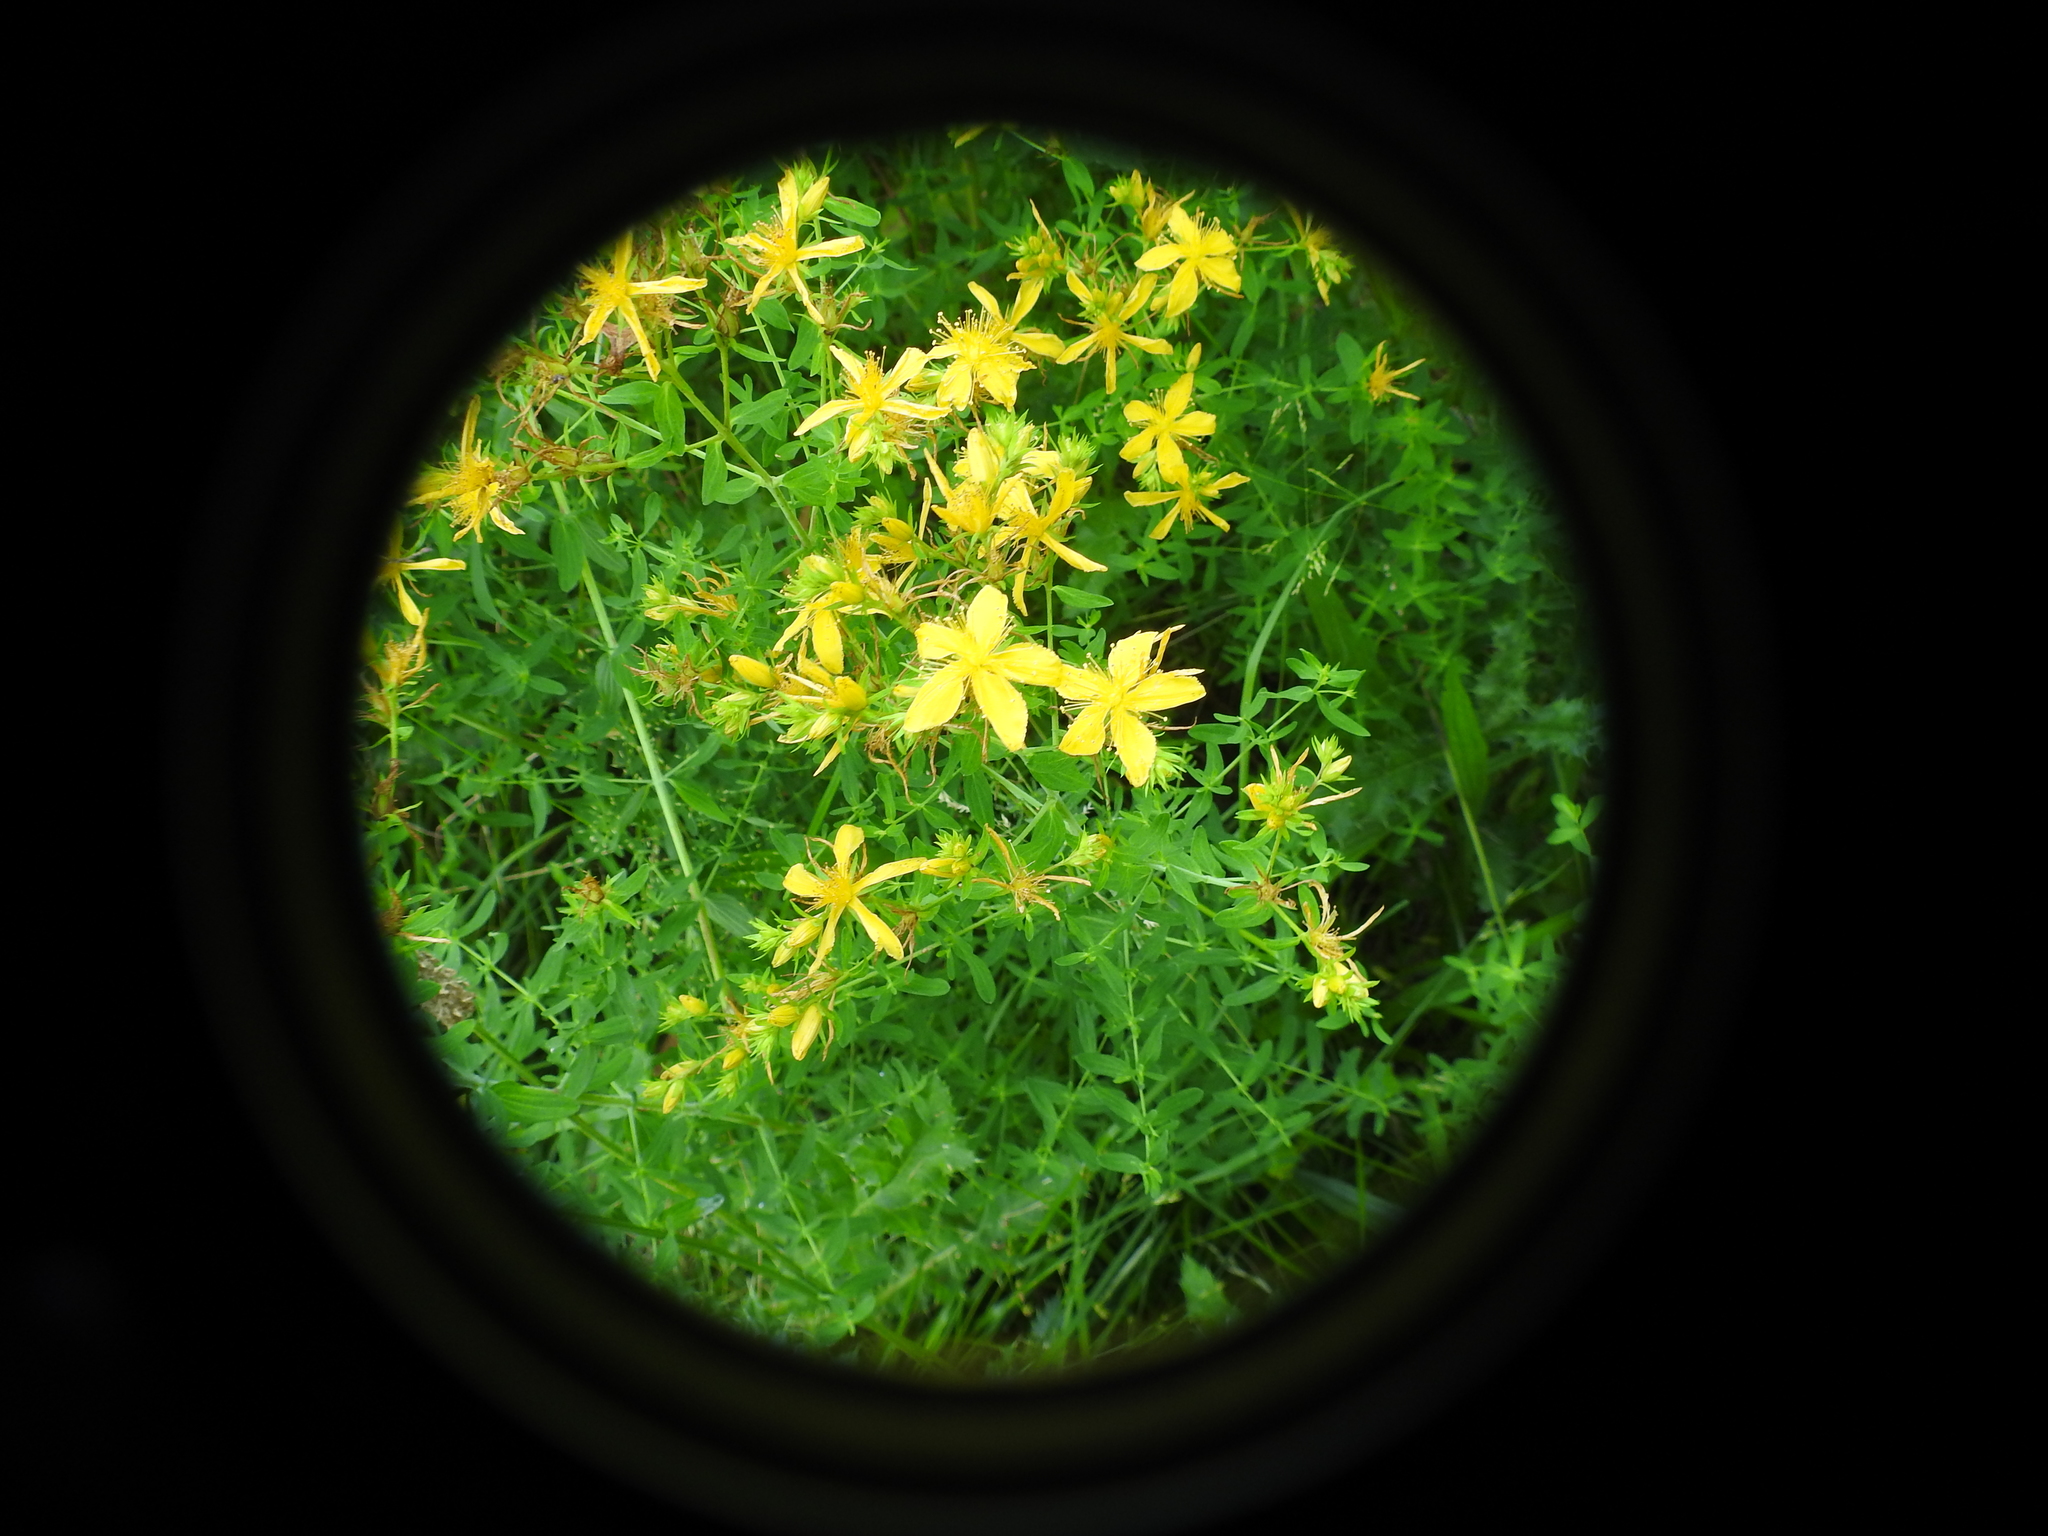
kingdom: Plantae
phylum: Tracheophyta
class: Magnoliopsida
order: Malpighiales
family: Hypericaceae
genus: Hypericum
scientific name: Hypericum perforatum
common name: Common st. johnswort
